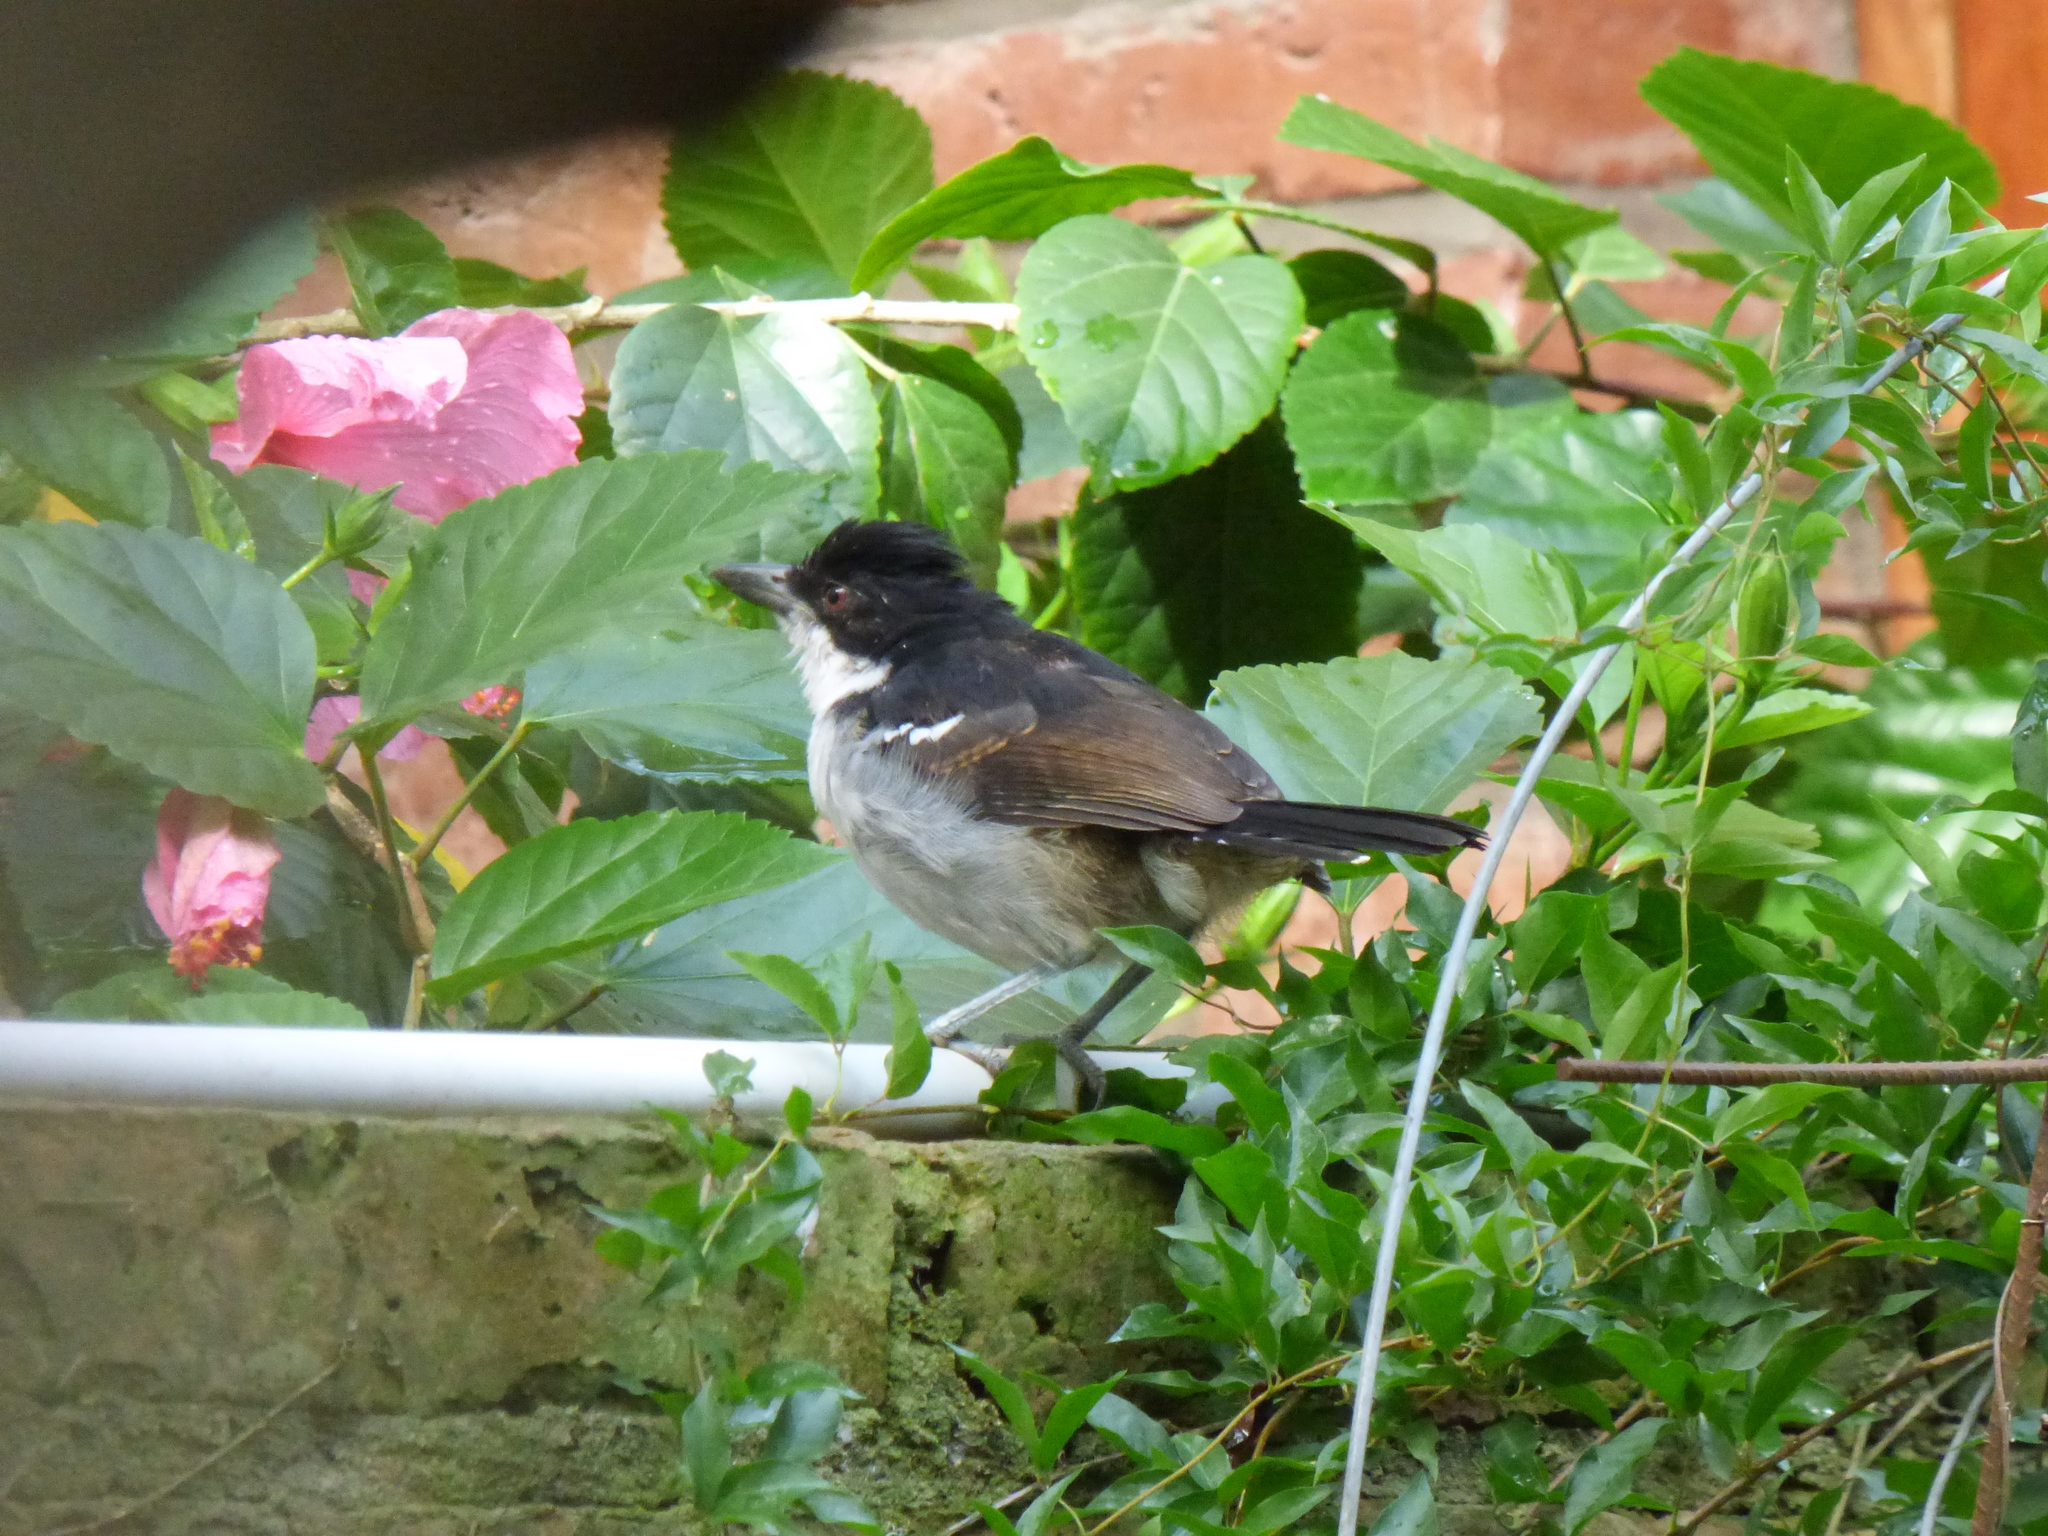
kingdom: Animalia
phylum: Chordata
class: Aves
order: Passeriformes
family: Thamnophilidae
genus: Taraba
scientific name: Taraba major
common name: Great antshrike
